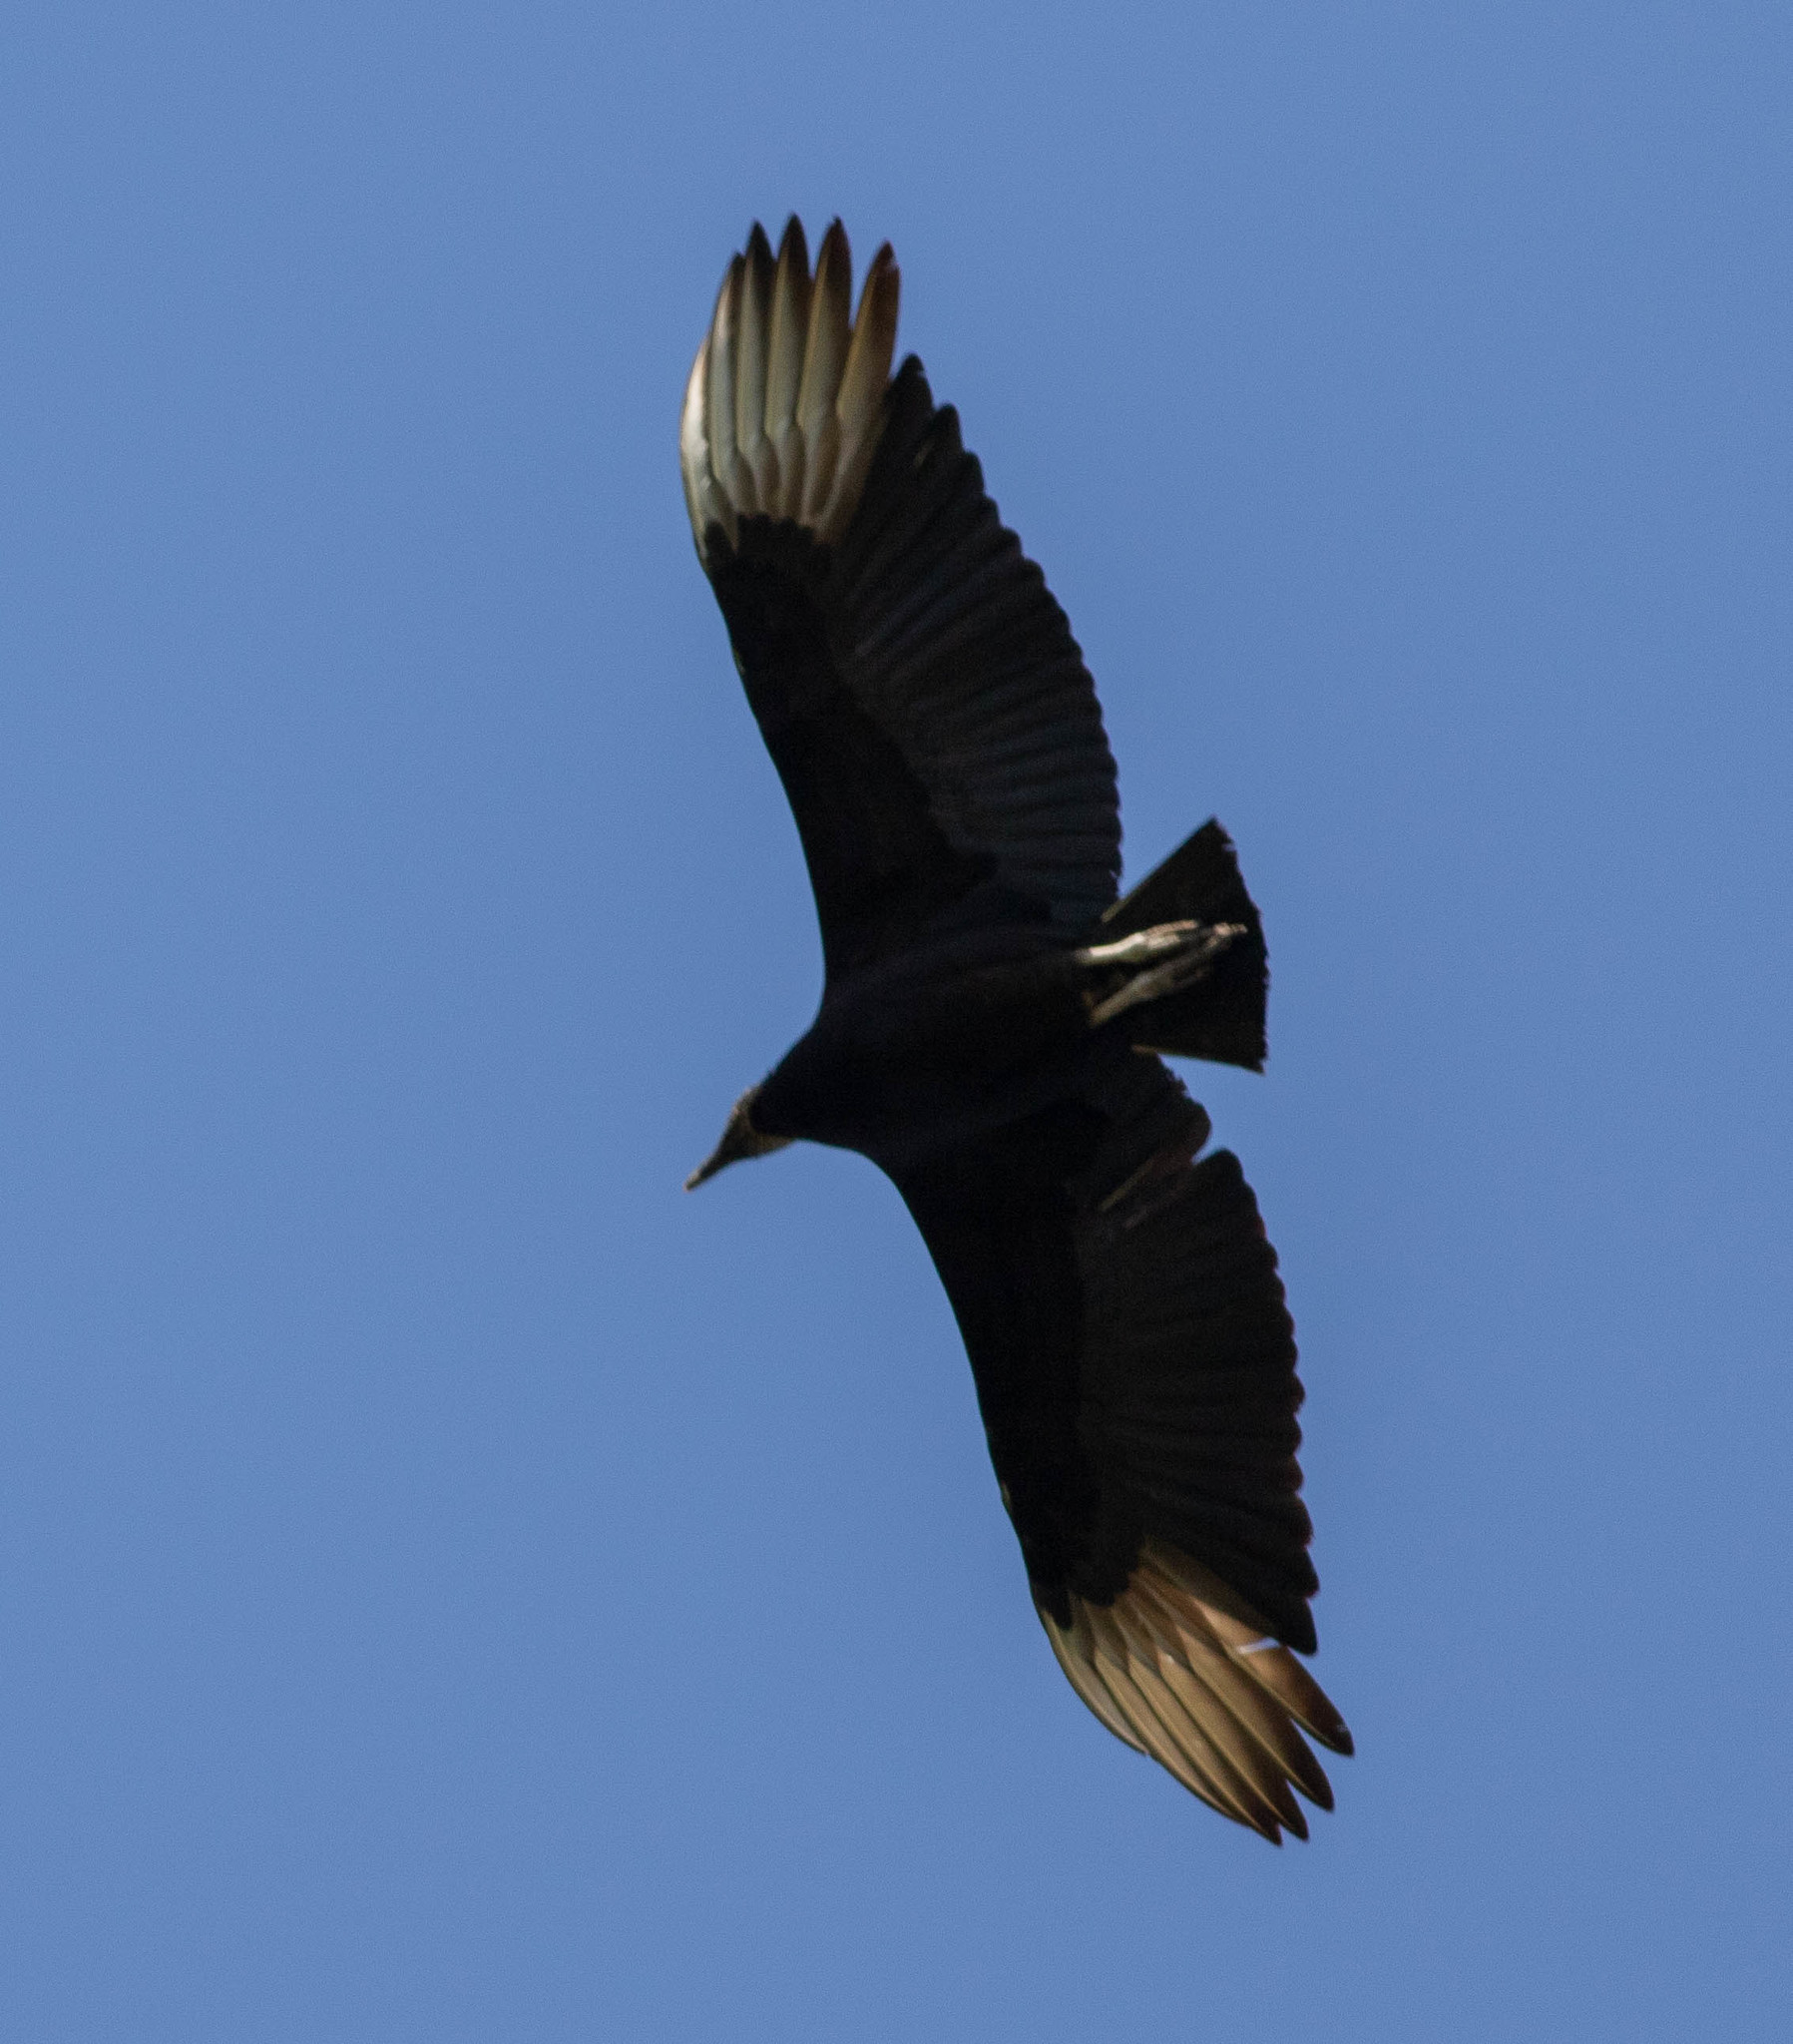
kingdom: Animalia
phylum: Chordata
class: Aves
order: Accipitriformes
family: Cathartidae
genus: Coragyps
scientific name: Coragyps atratus
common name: Black vulture
